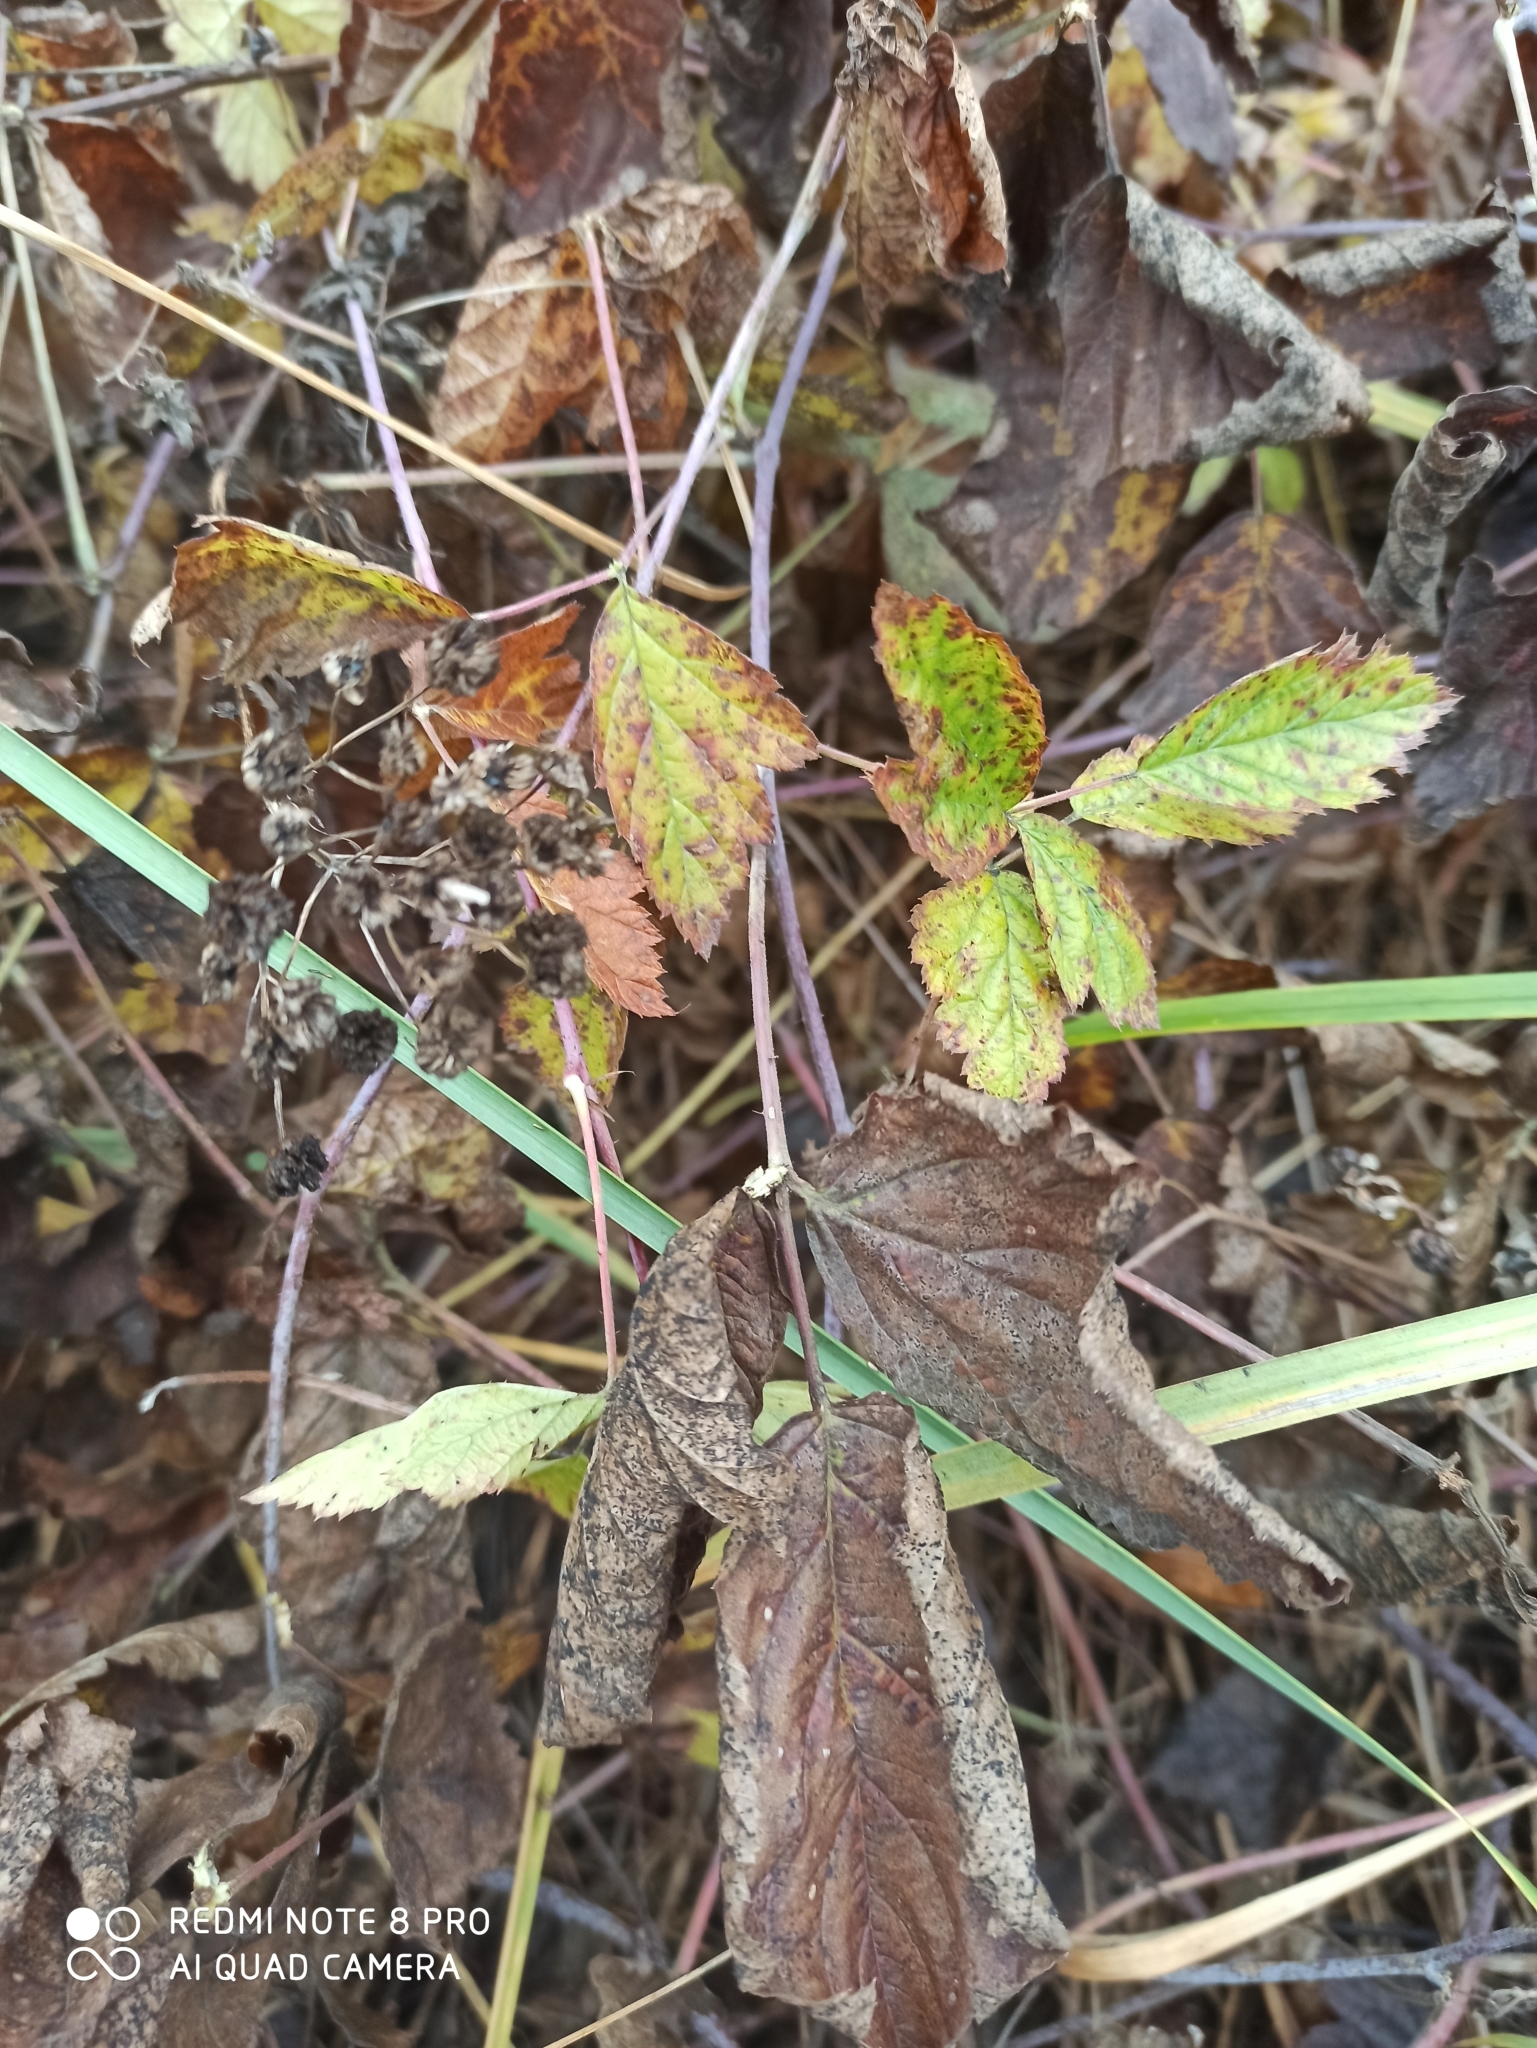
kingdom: Plantae
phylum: Tracheophyta
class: Magnoliopsida
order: Rosales
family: Rosaceae
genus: Rubus
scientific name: Rubus caesius
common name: Dewberry
